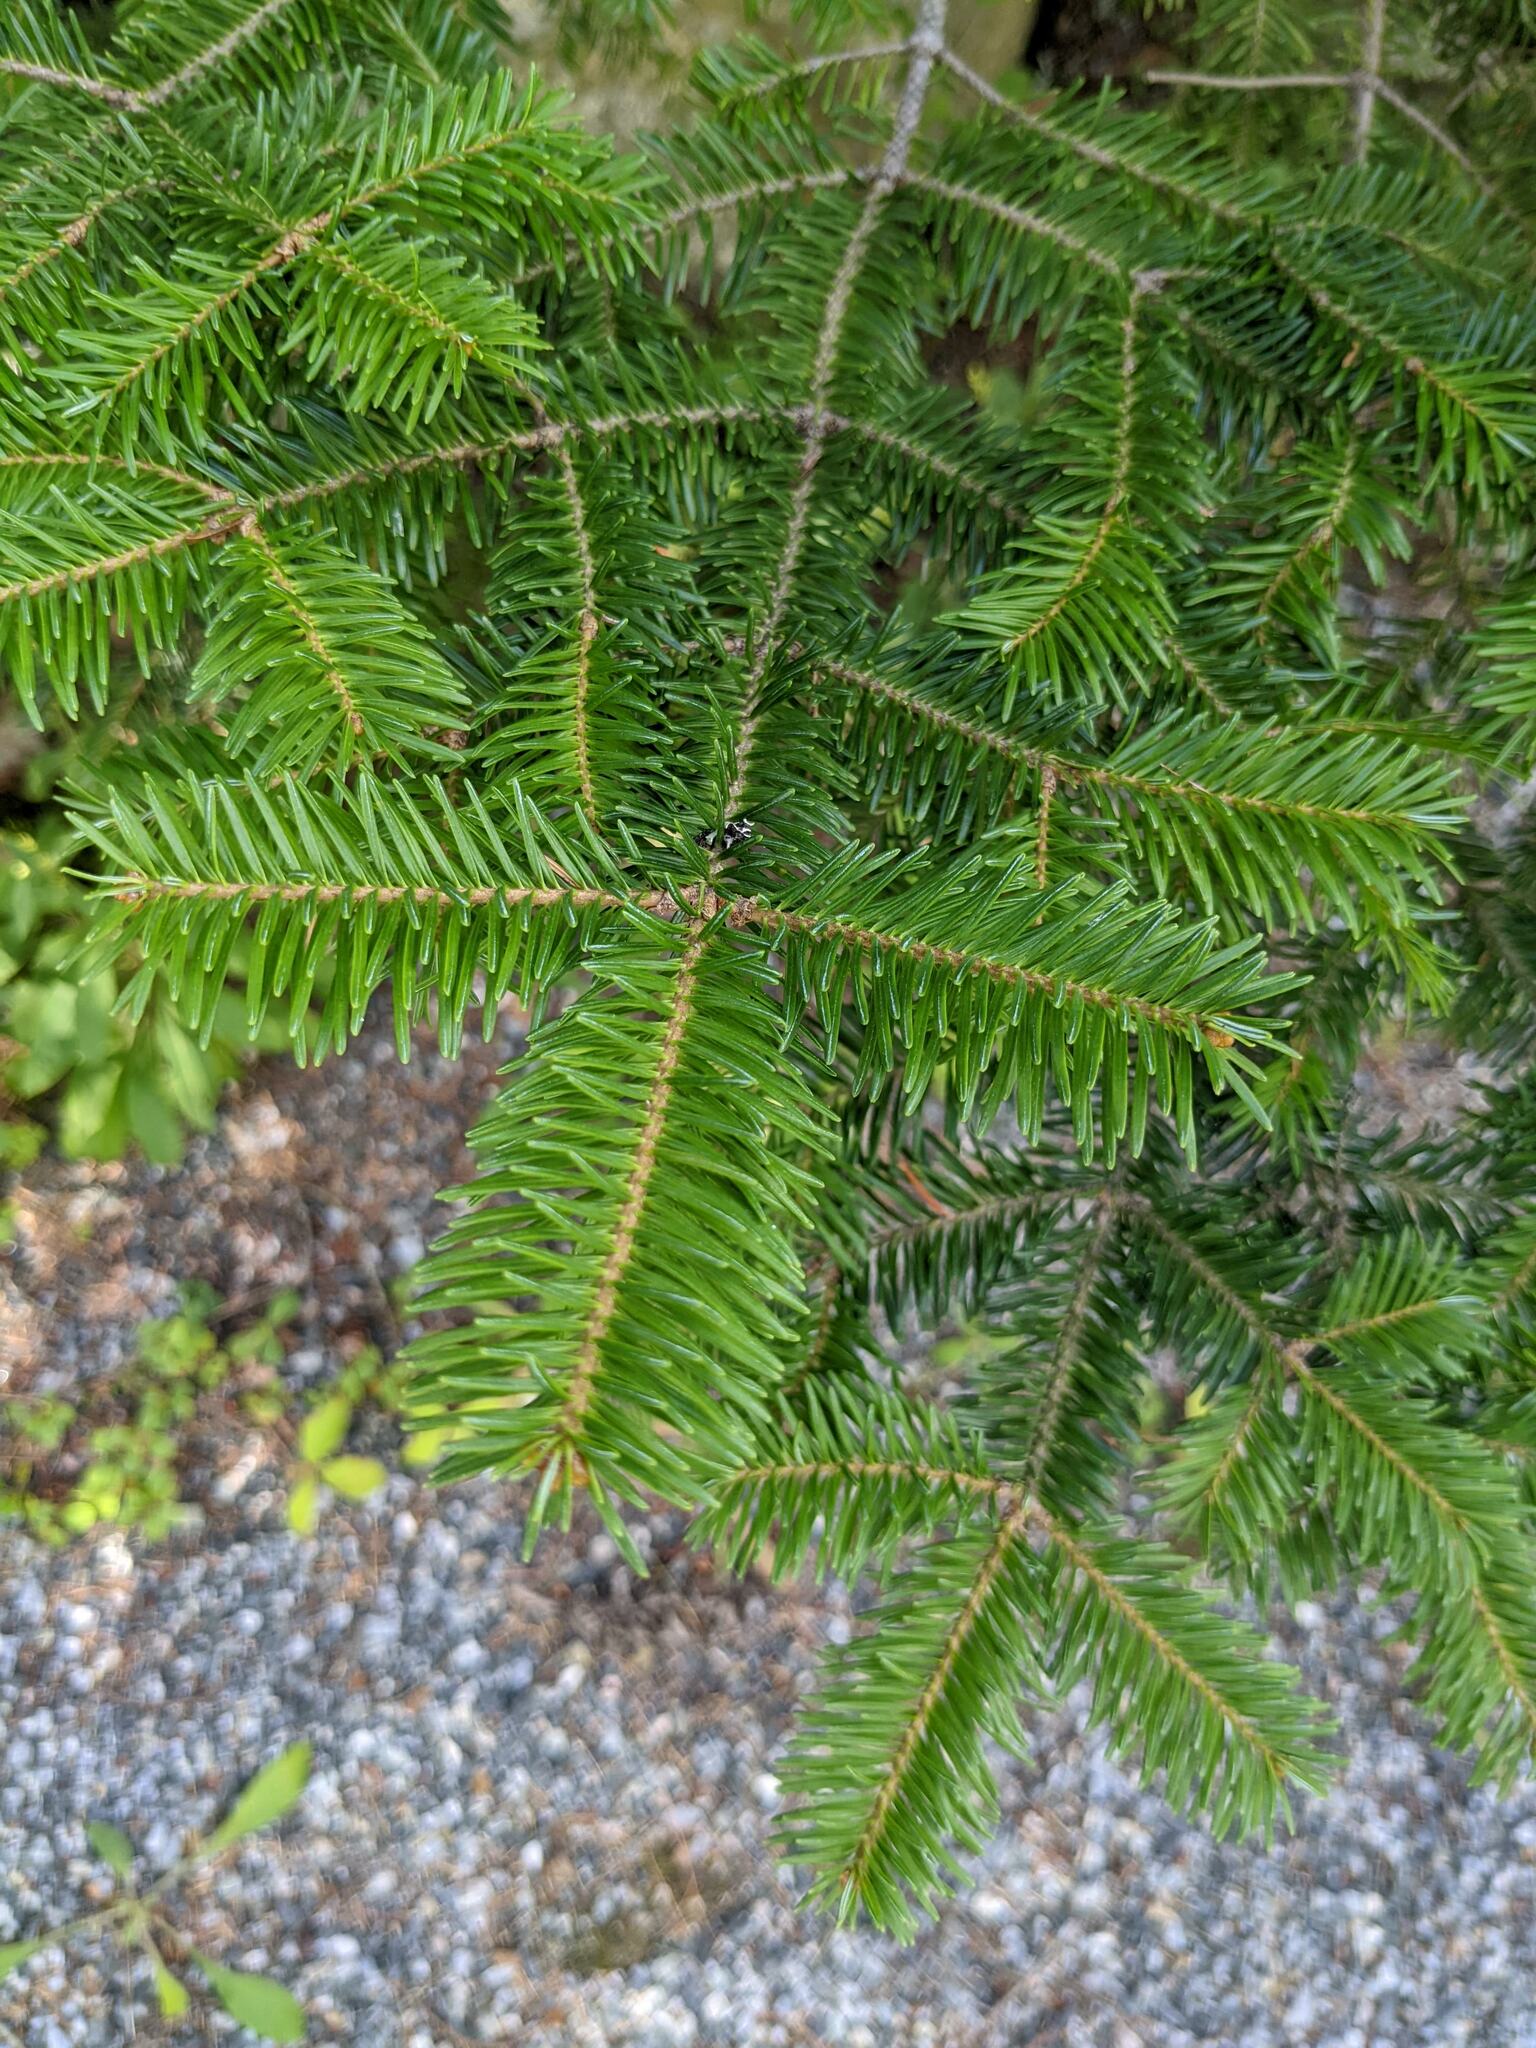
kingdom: Plantae
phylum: Tracheophyta
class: Pinopsida
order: Pinales
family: Pinaceae
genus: Abies
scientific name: Abies balsamea
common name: Balsam fir
